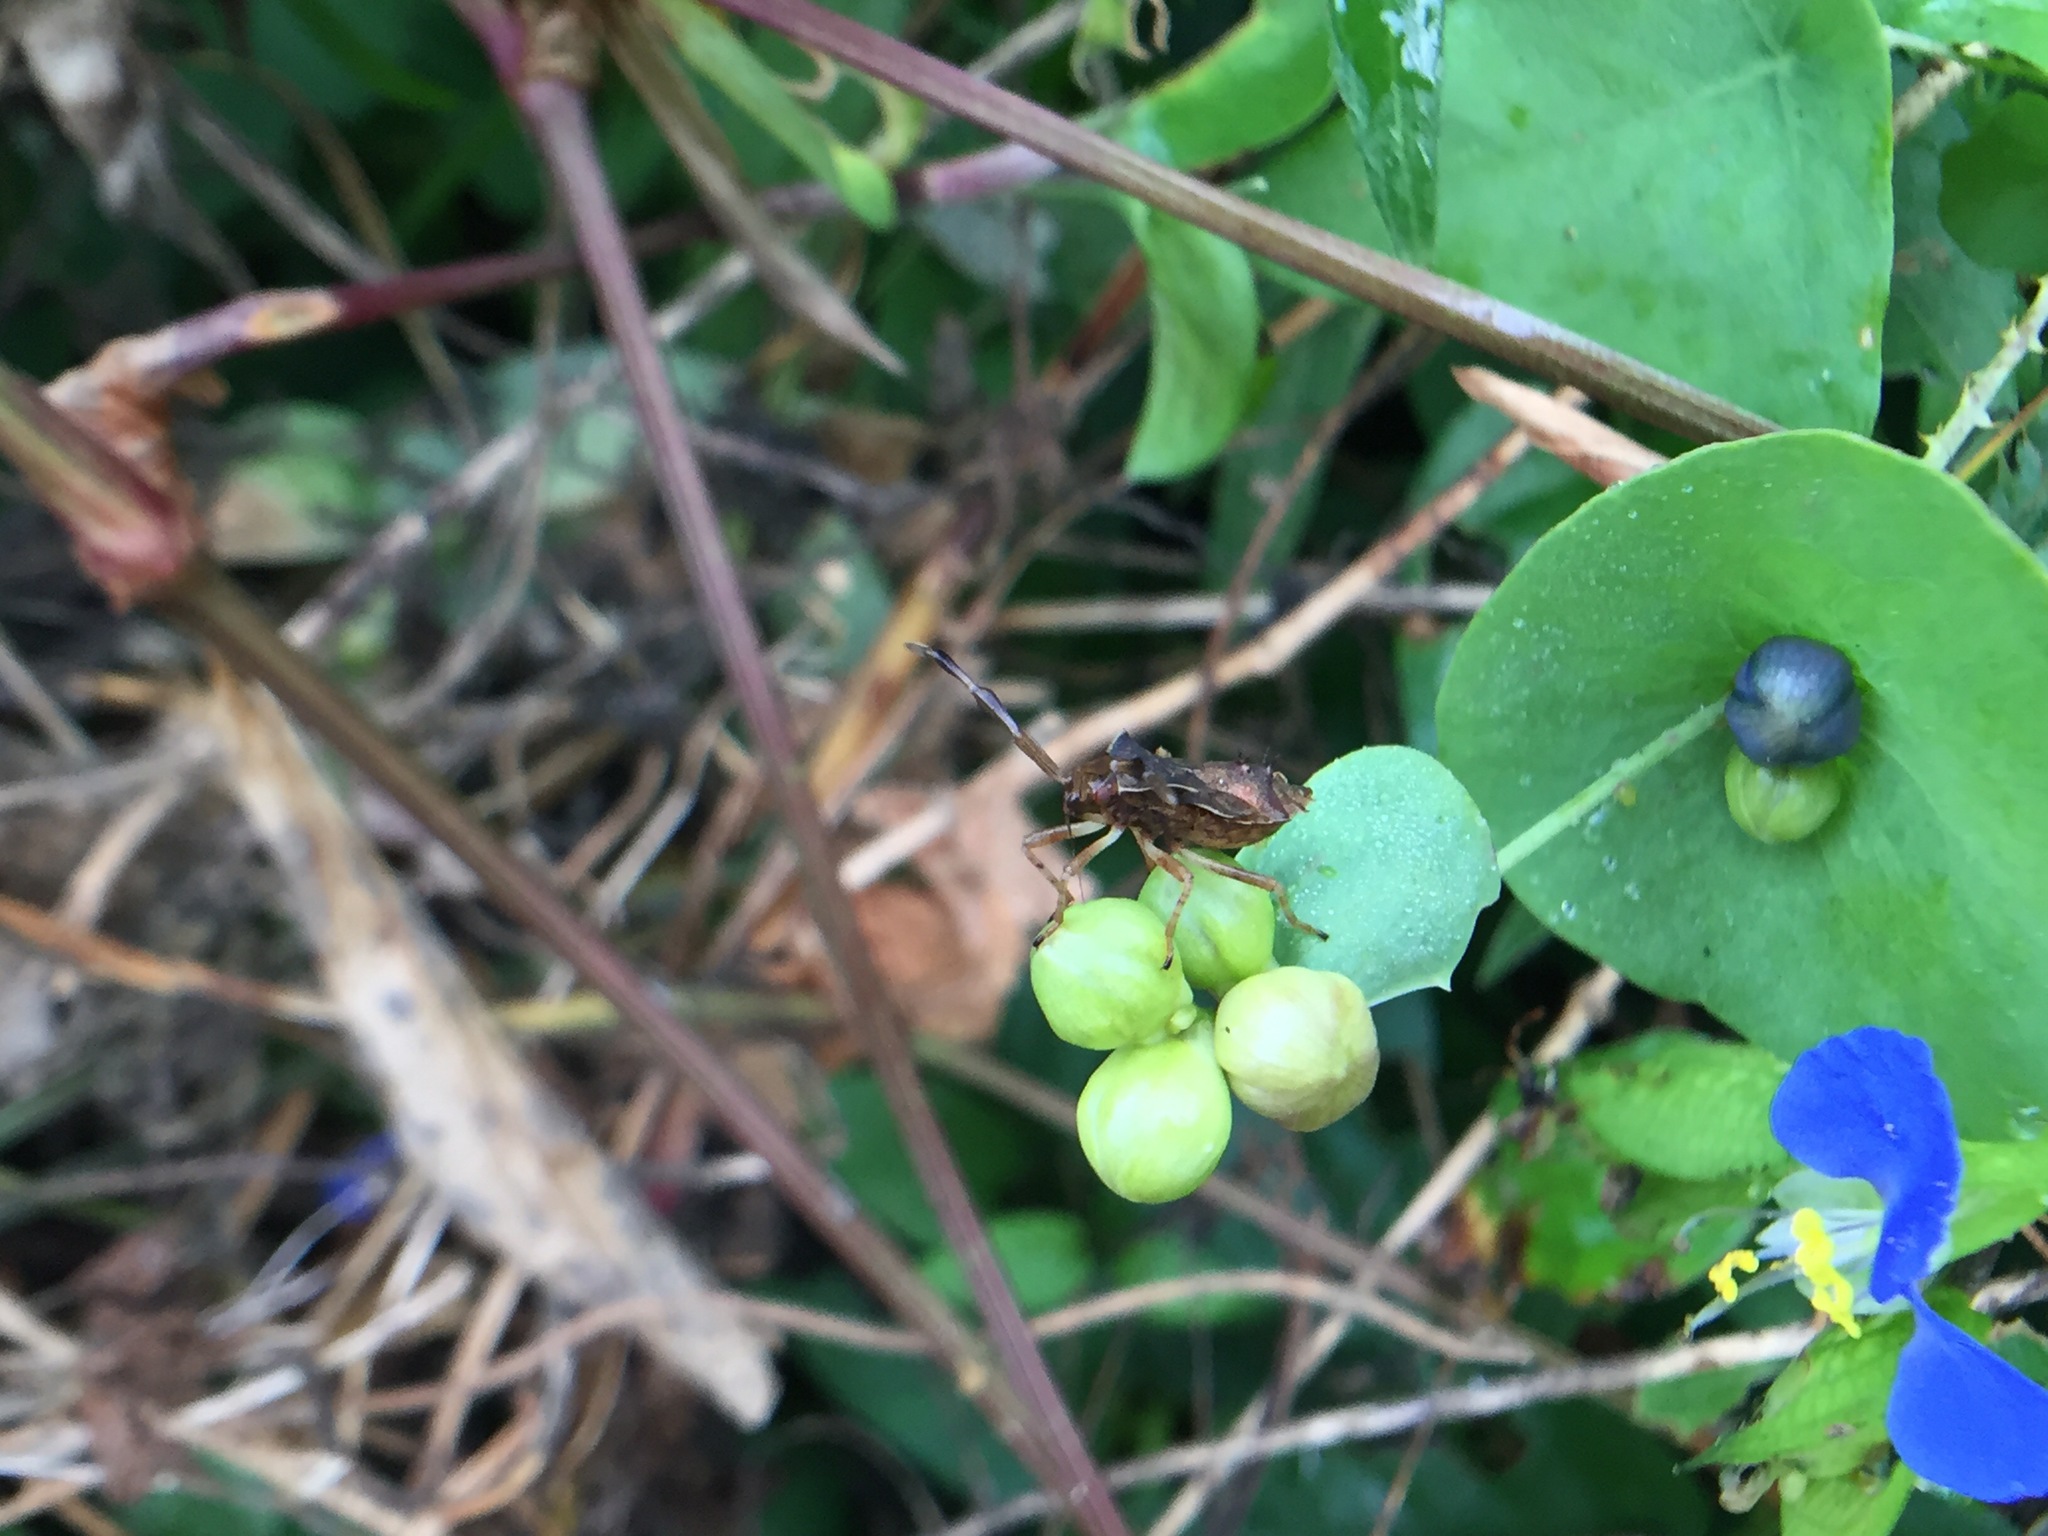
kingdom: Plantae
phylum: Tracheophyta
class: Magnoliopsida
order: Caryophyllales
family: Polygonaceae
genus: Persicaria
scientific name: Persicaria perfoliata
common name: Asiatic tearthumb
